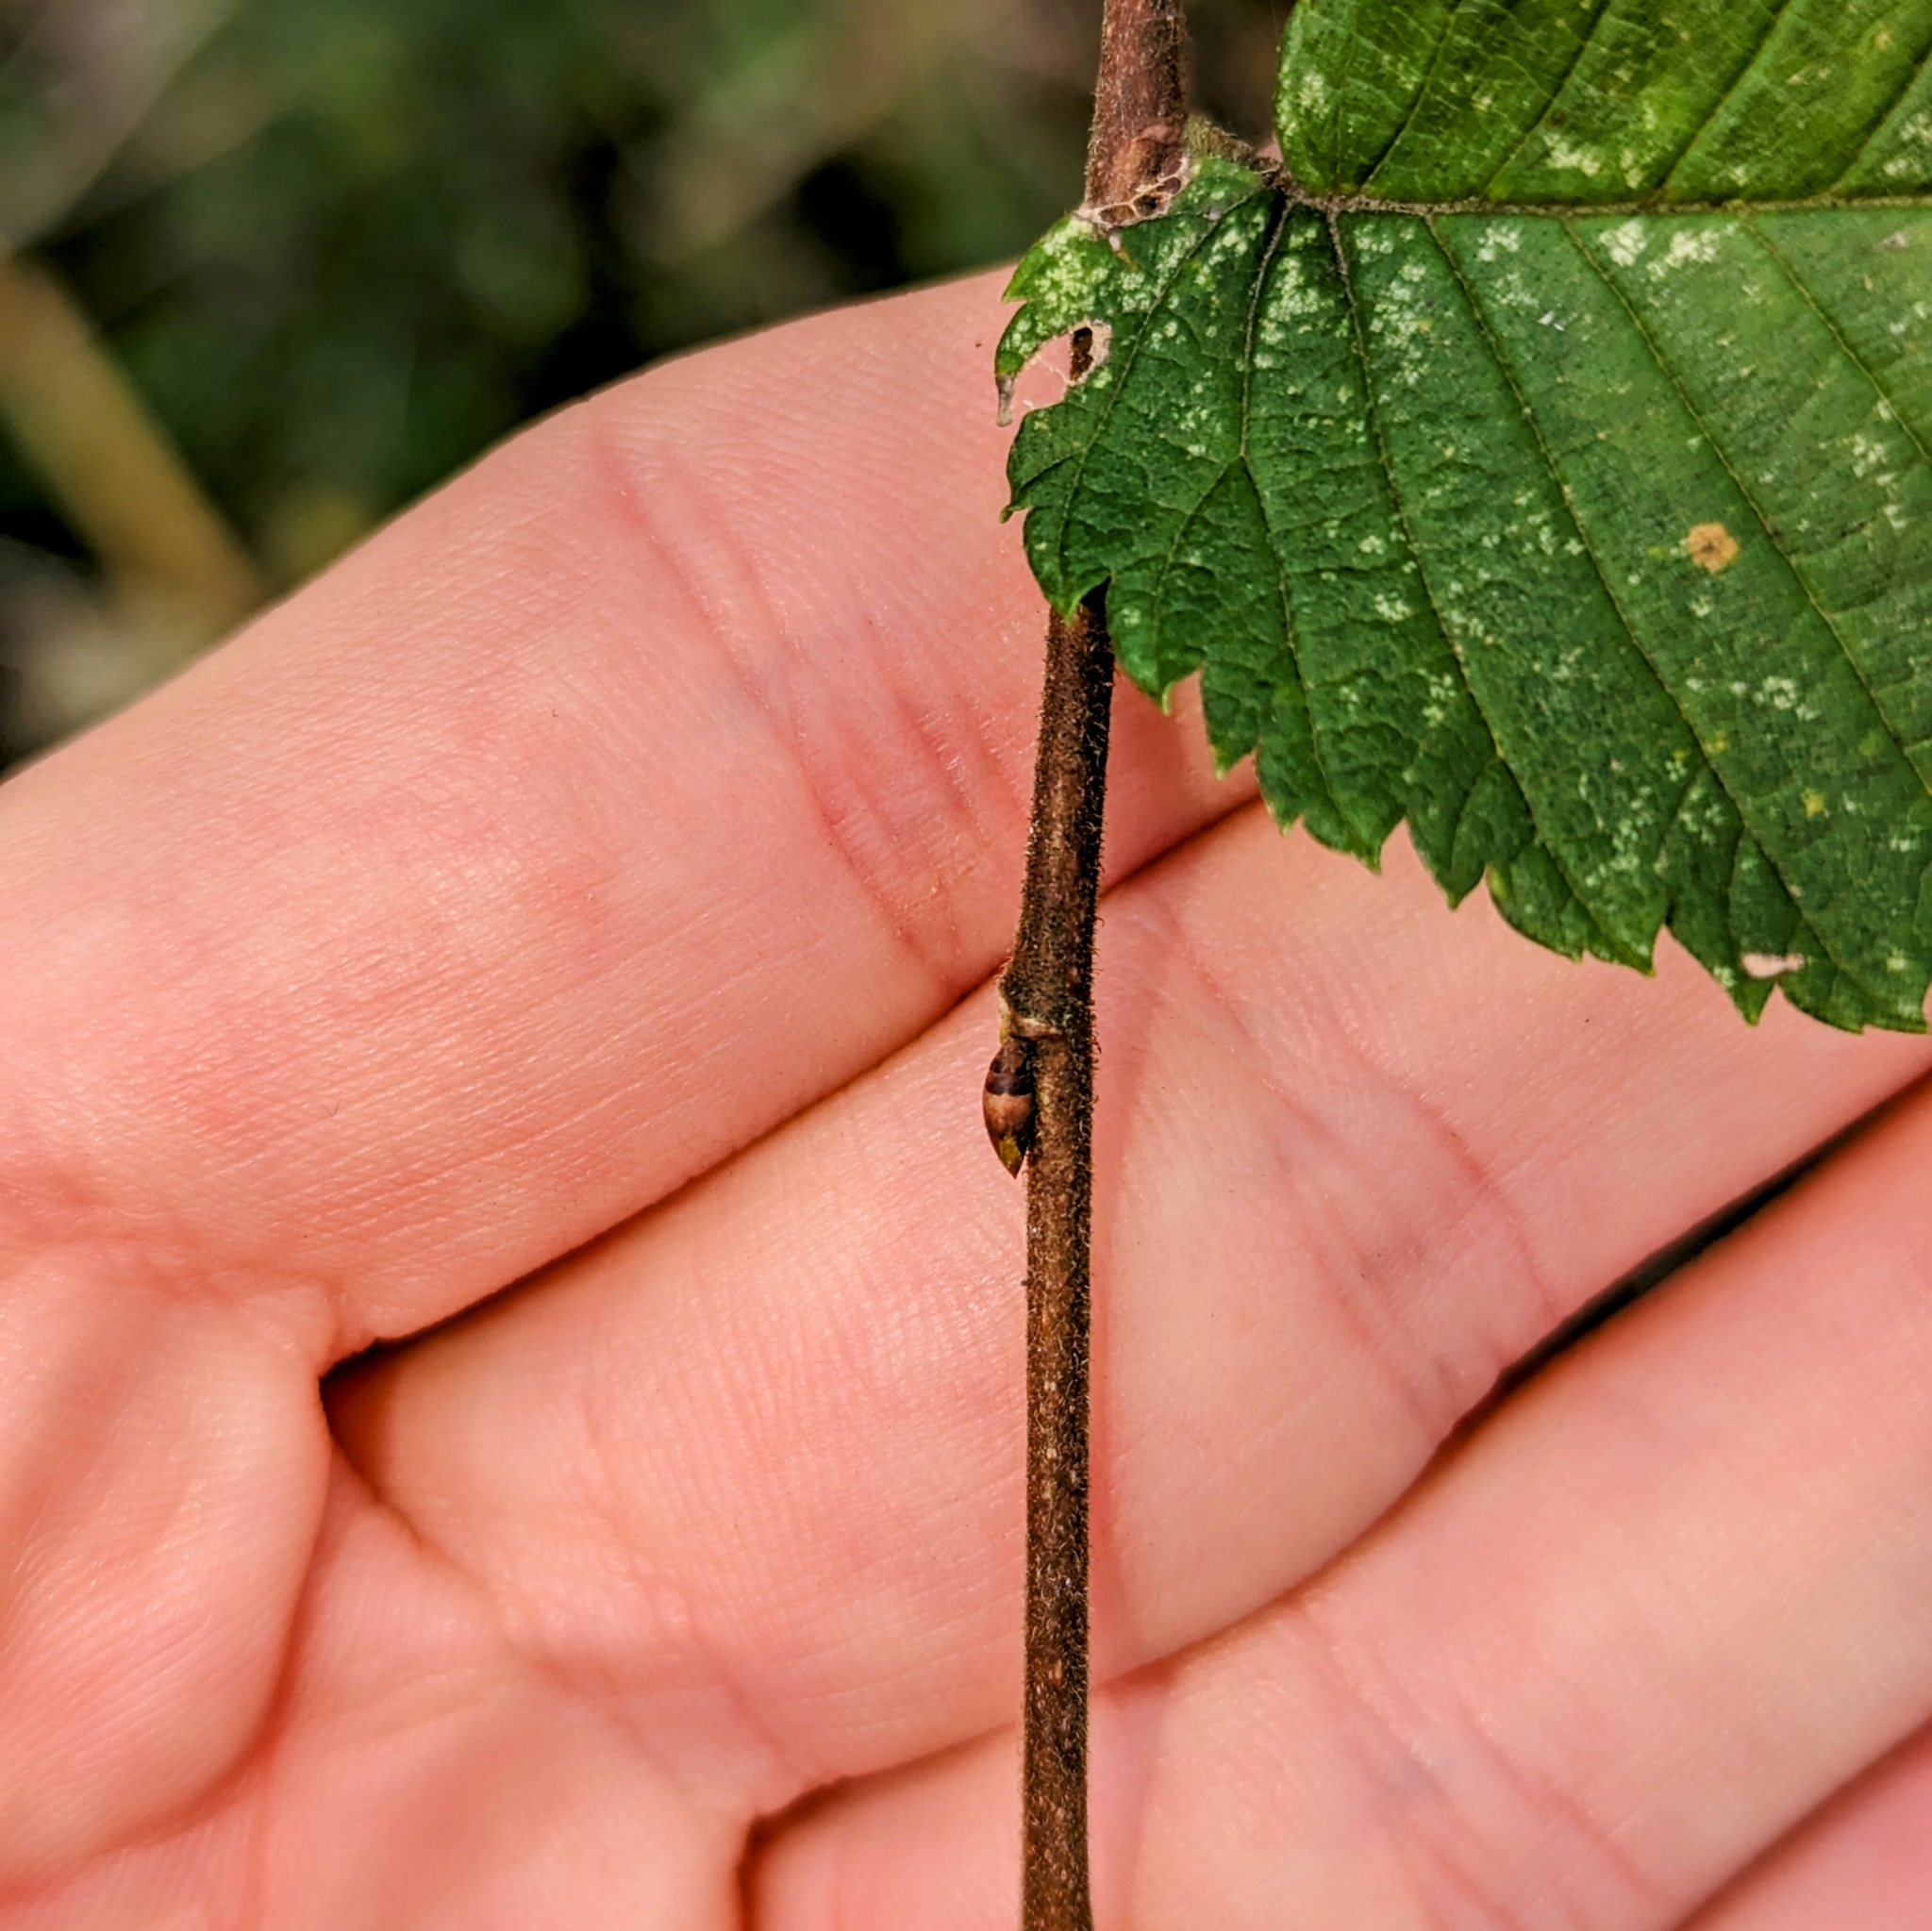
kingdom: Plantae
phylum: Tracheophyta
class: Magnoliopsida
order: Rosales
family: Ulmaceae
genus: Ulmus
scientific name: Ulmus americana
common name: American elm
